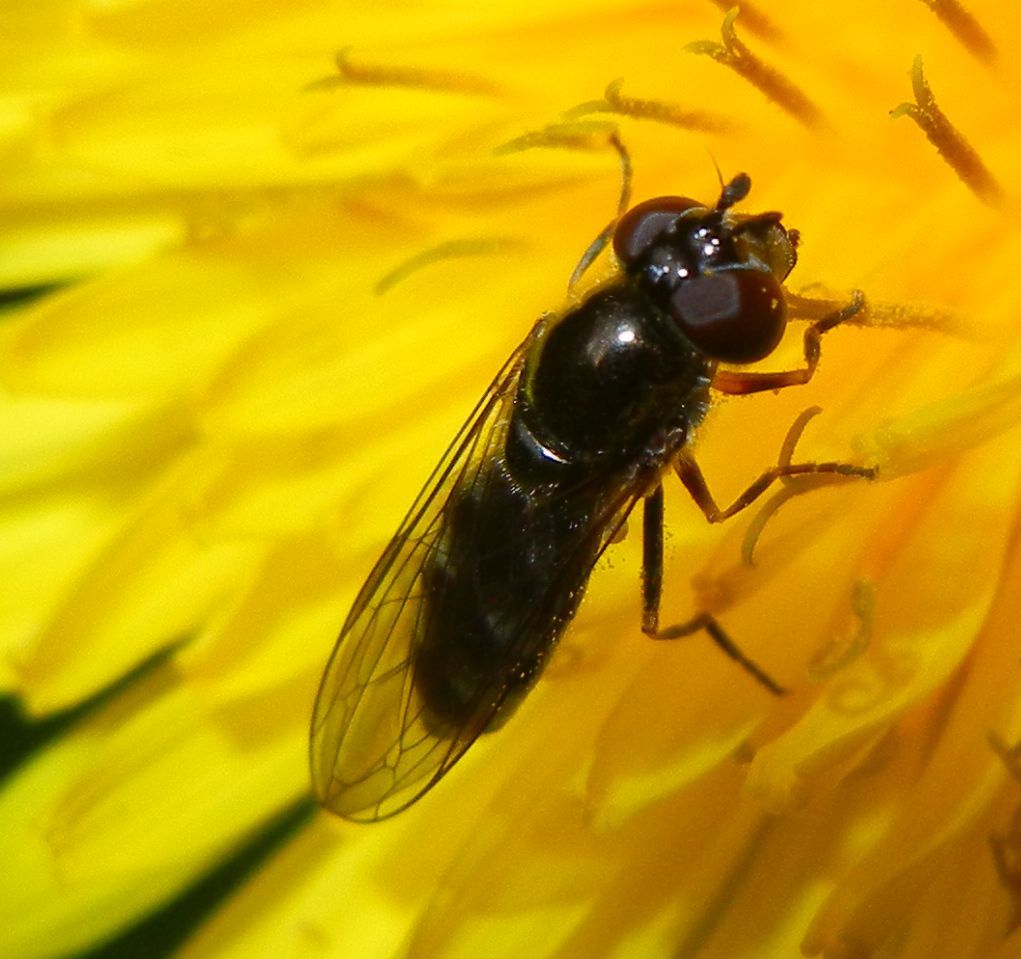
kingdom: Animalia
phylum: Arthropoda
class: Insecta
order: Diptera
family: Syrphidae
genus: Platycheirus
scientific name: Platycheirus albimanus
